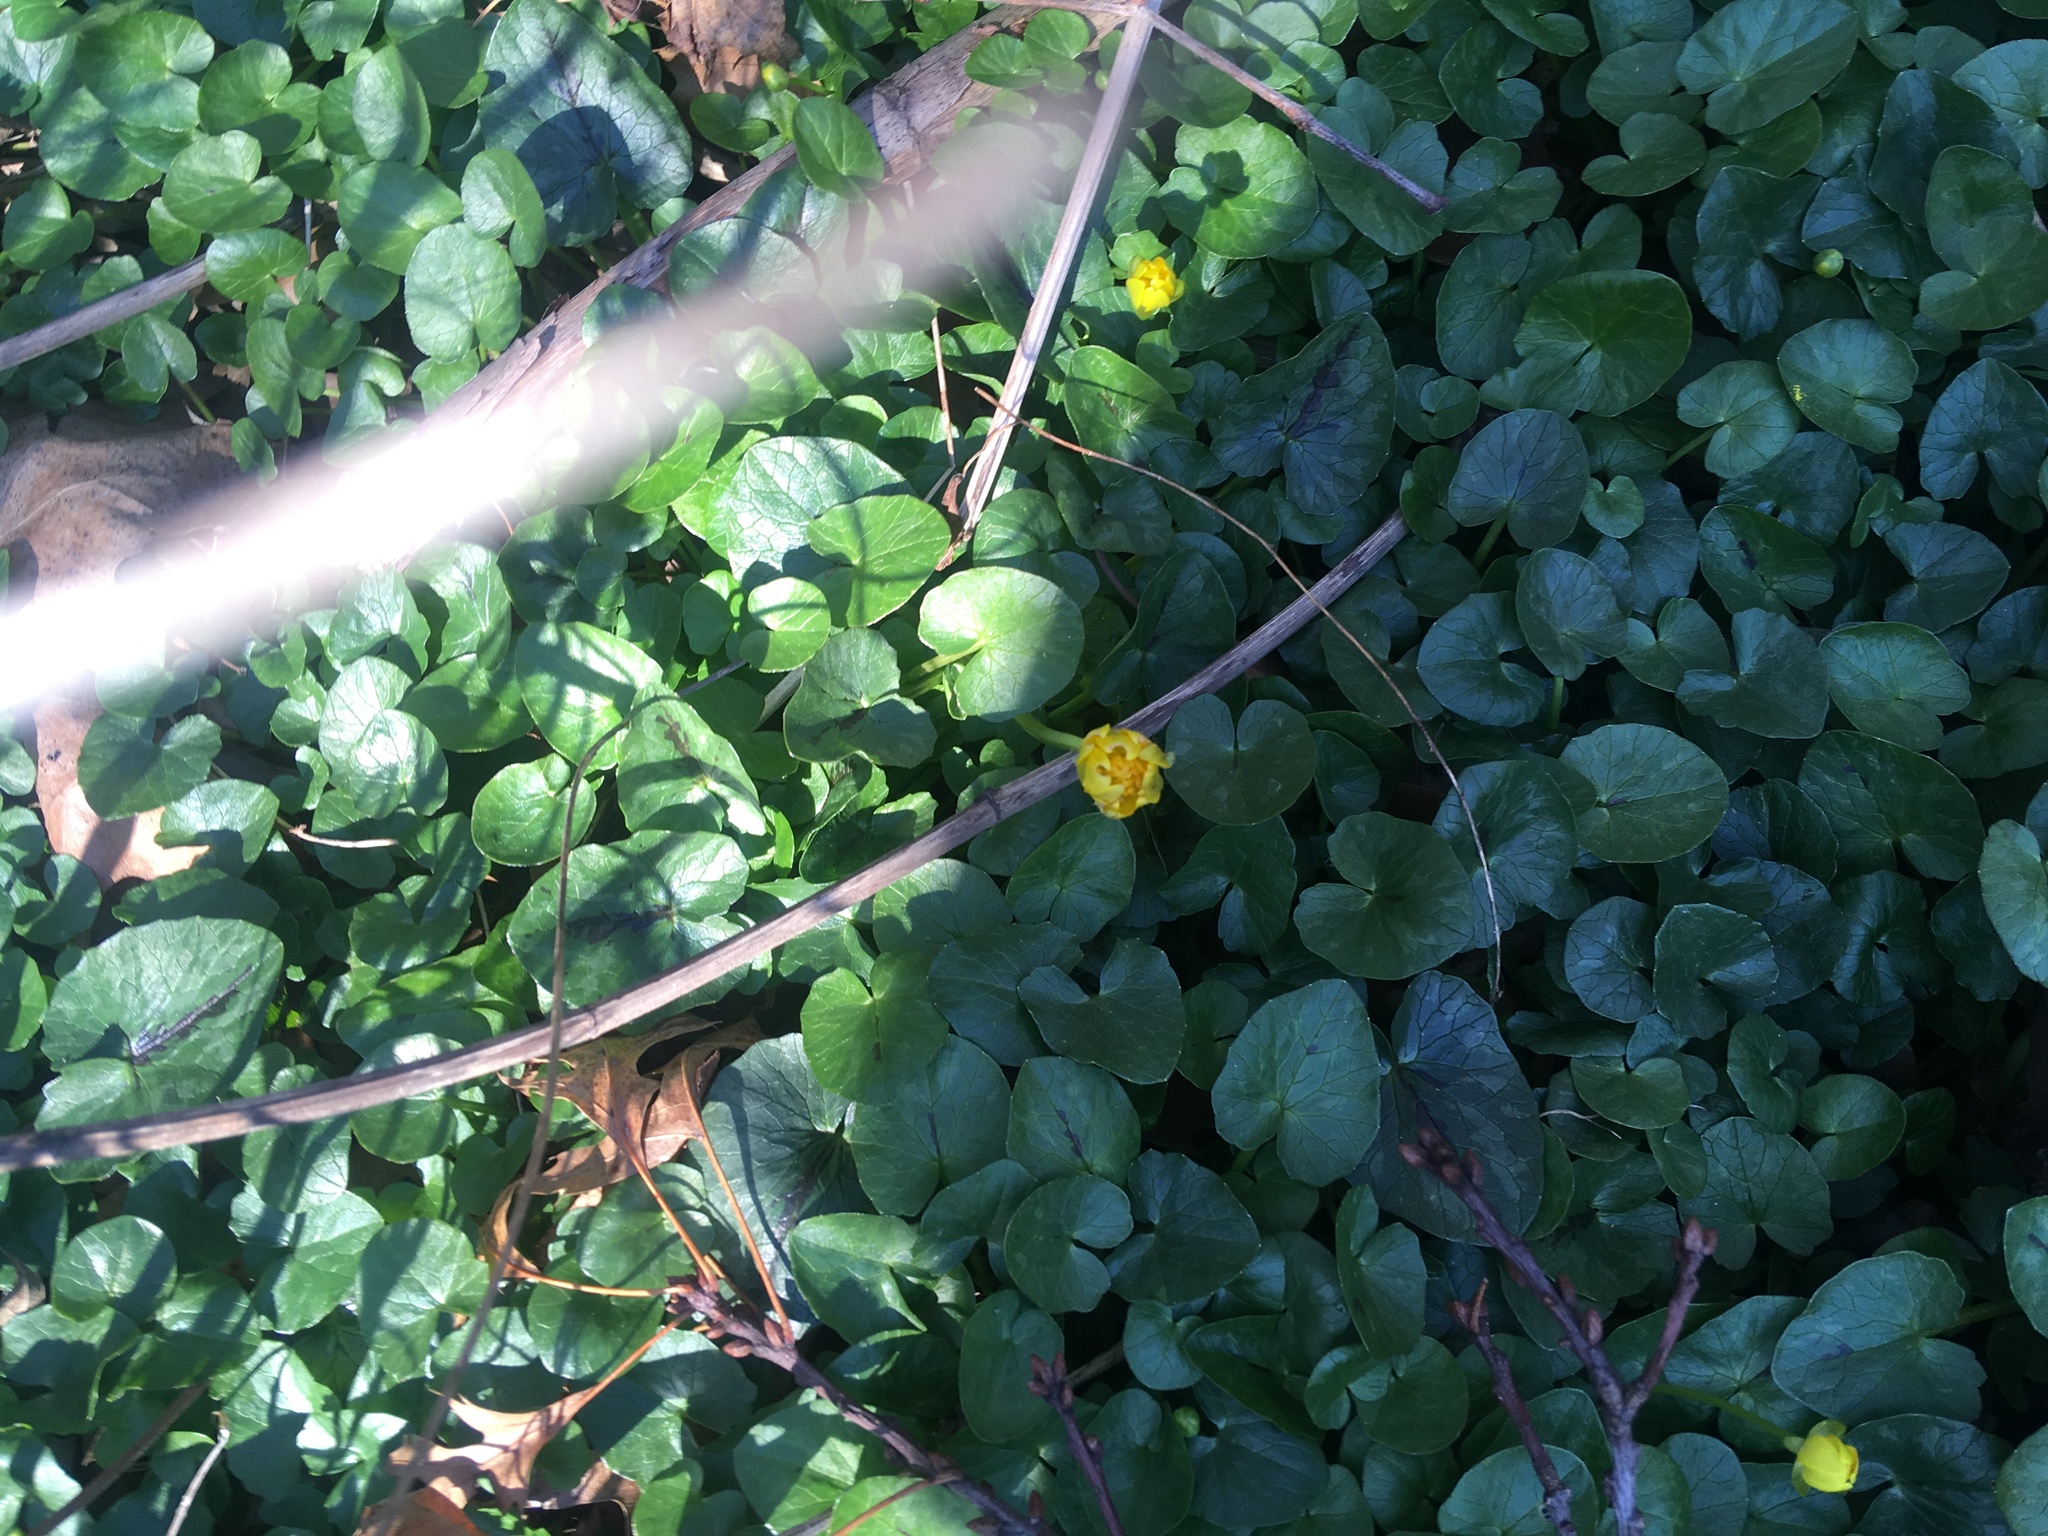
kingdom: Plantae
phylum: Tracheophyta
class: Magnoliopsida
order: Ranunculales
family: Ranunculaceae
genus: Ficaria
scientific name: Ficaria verna
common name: Lesser celandine
